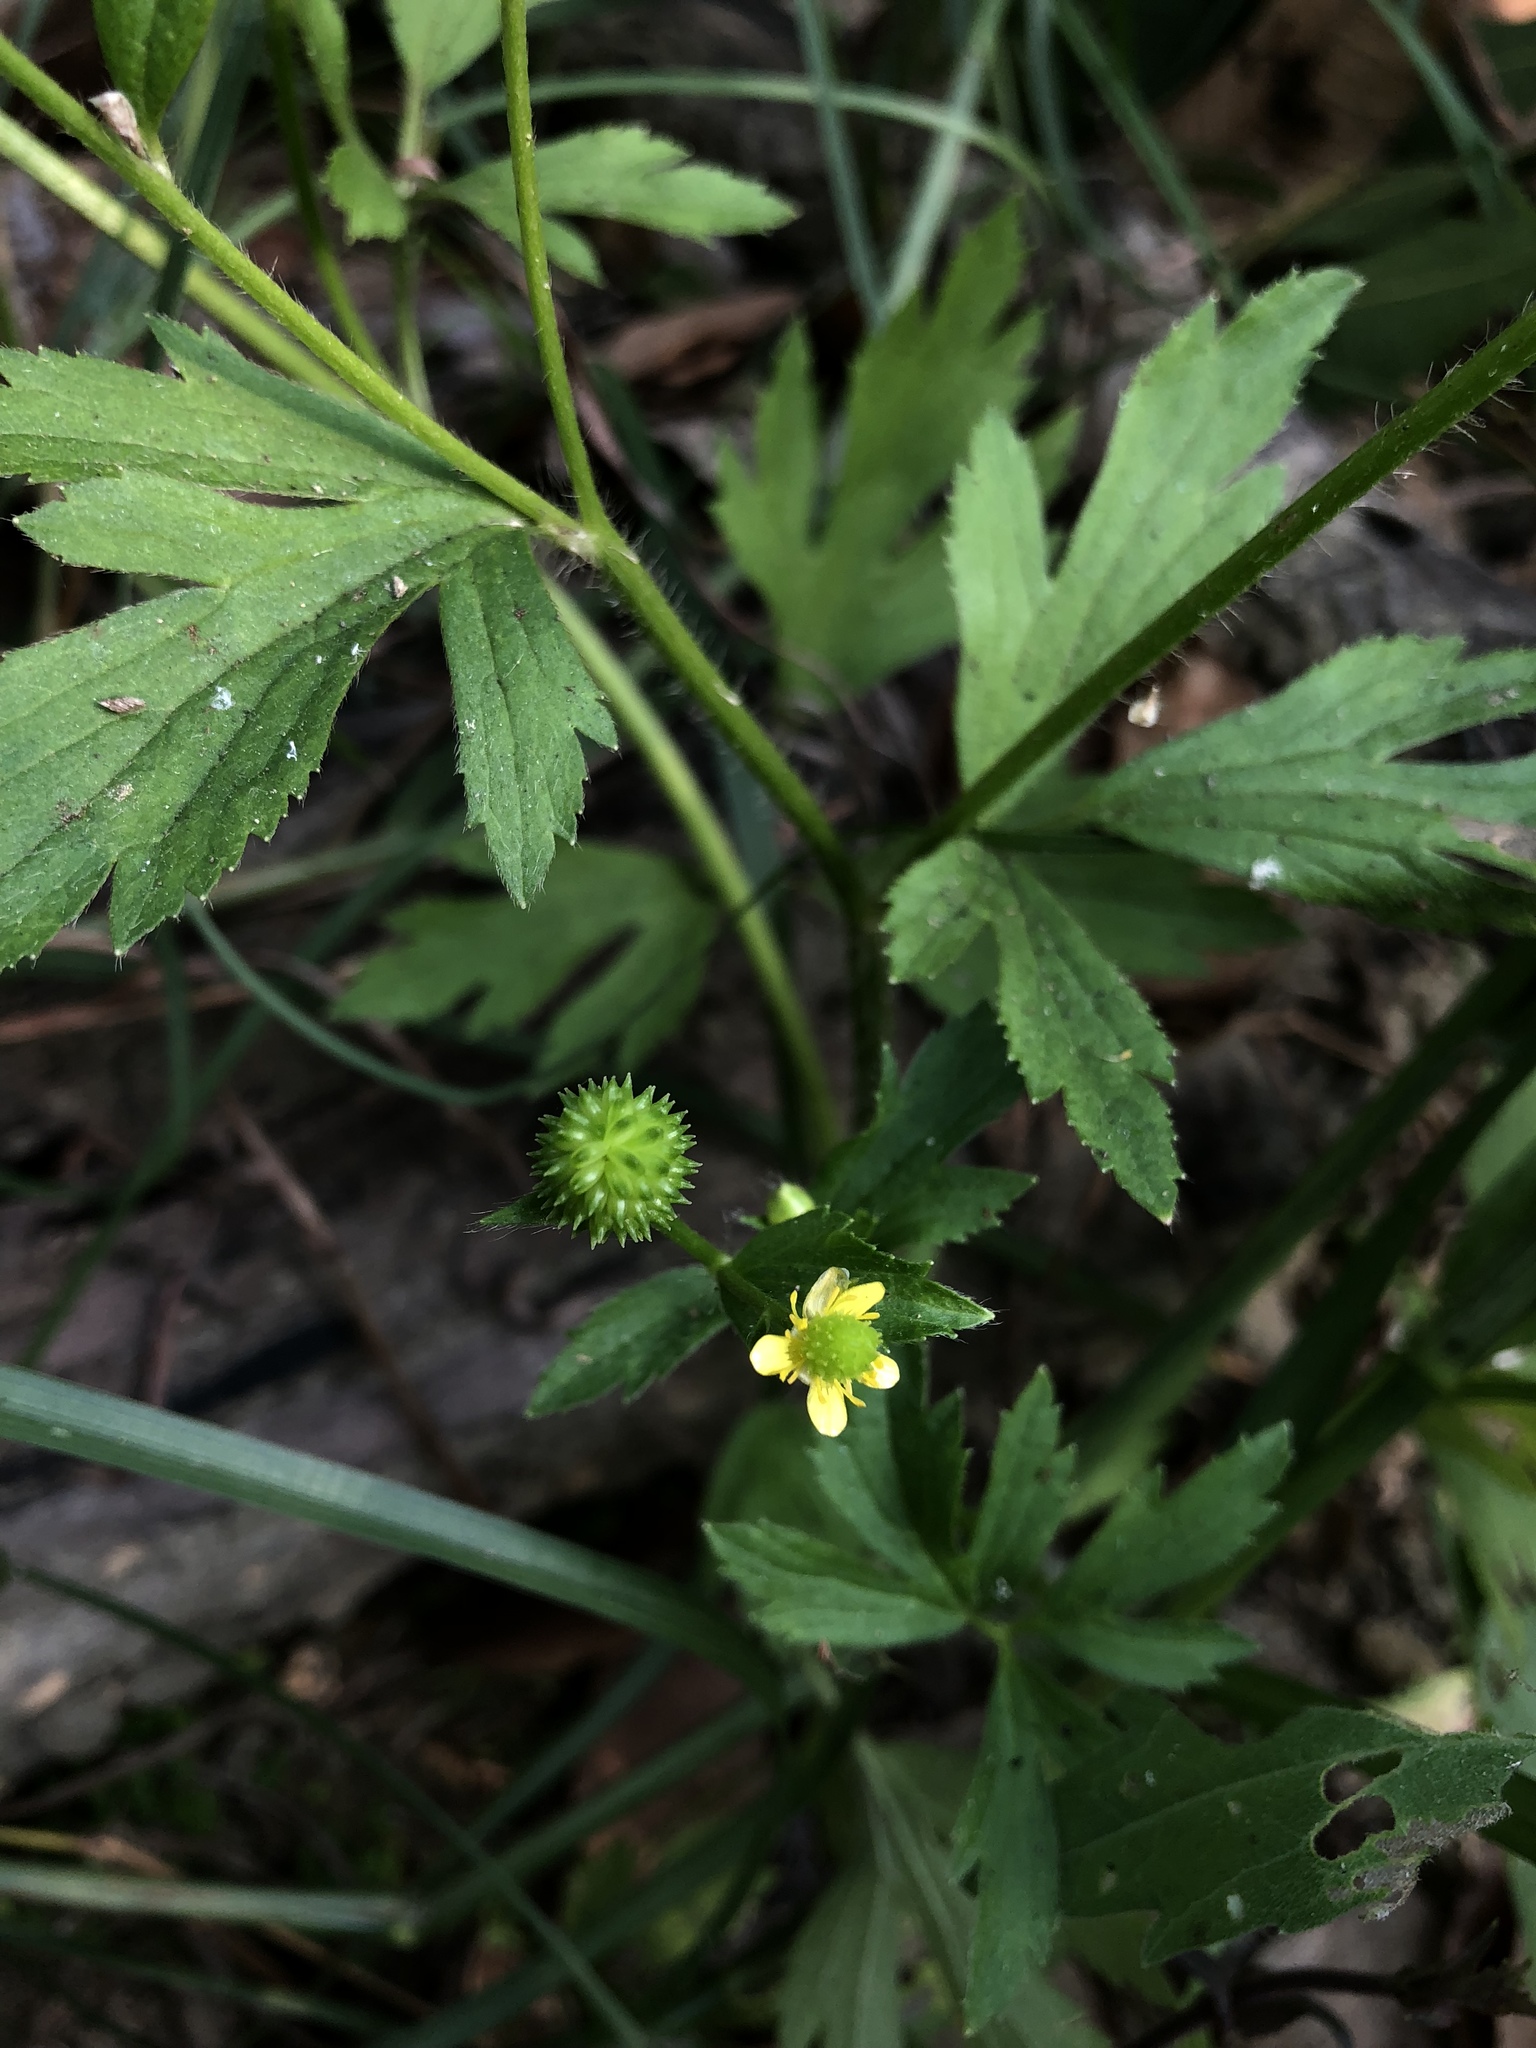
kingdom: Plantae
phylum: Tracheophyta
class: Magnoliopsida
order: Ranunculales
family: Ranunculaceae
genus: Ranunculus
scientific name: Ranunculus chinensis
